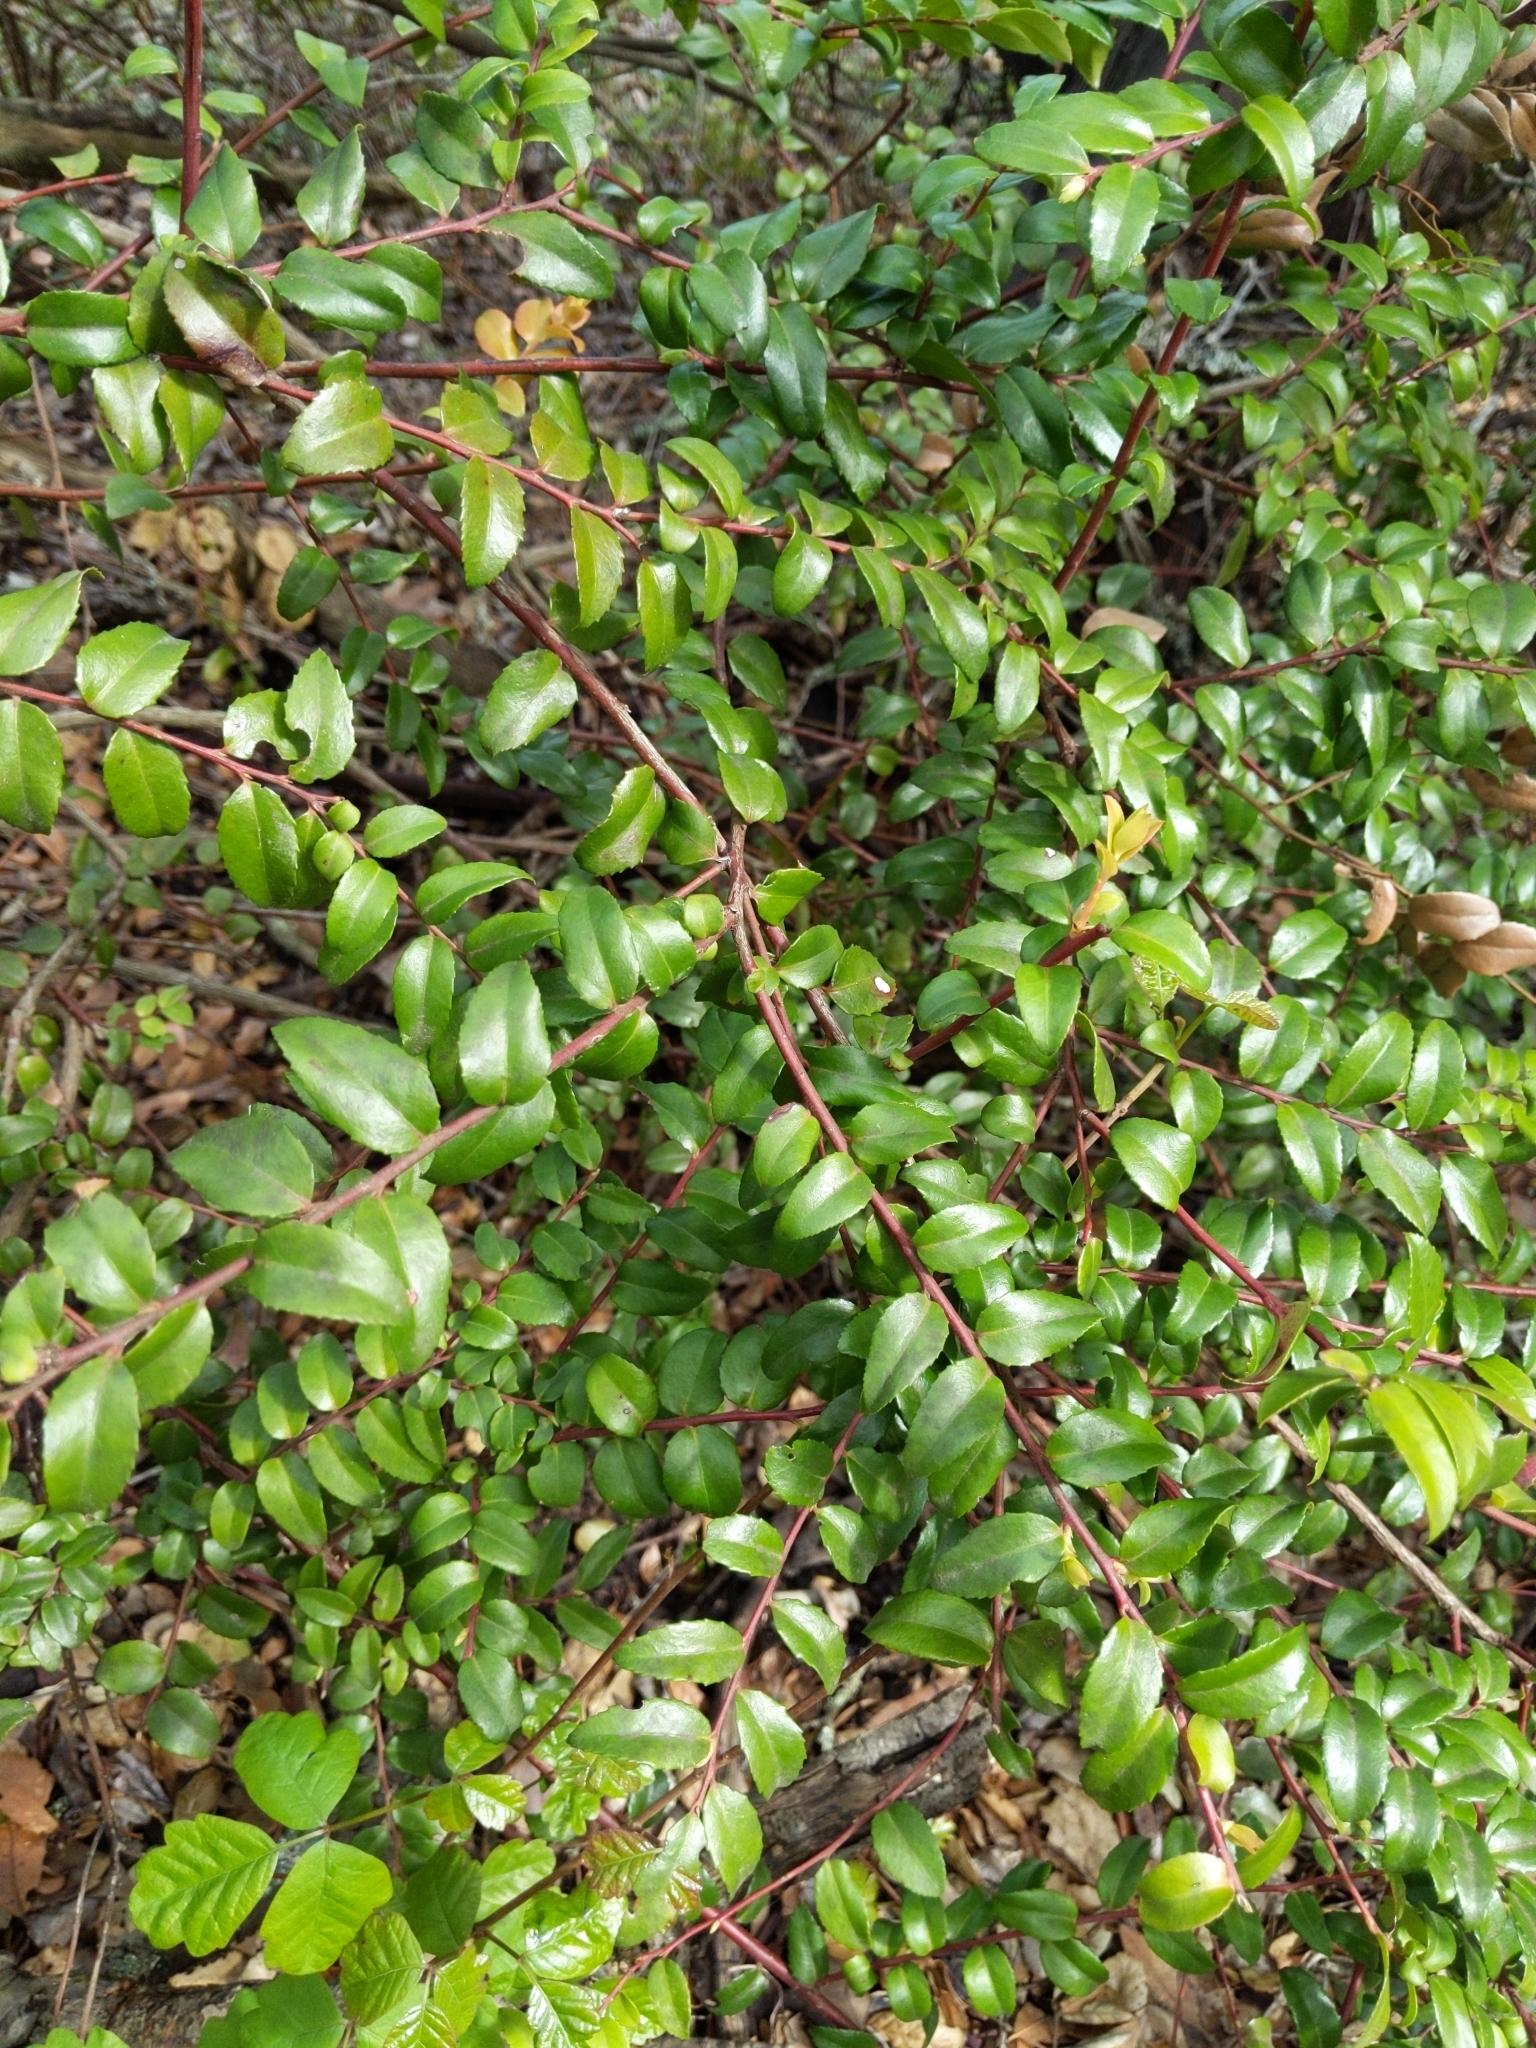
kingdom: Plantae
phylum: Tracheophyta
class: Magnoliopsida
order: Ericales
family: Ericaceae
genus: Vaccinium
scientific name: Vaccinium ovatum
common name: California-huckleberry
